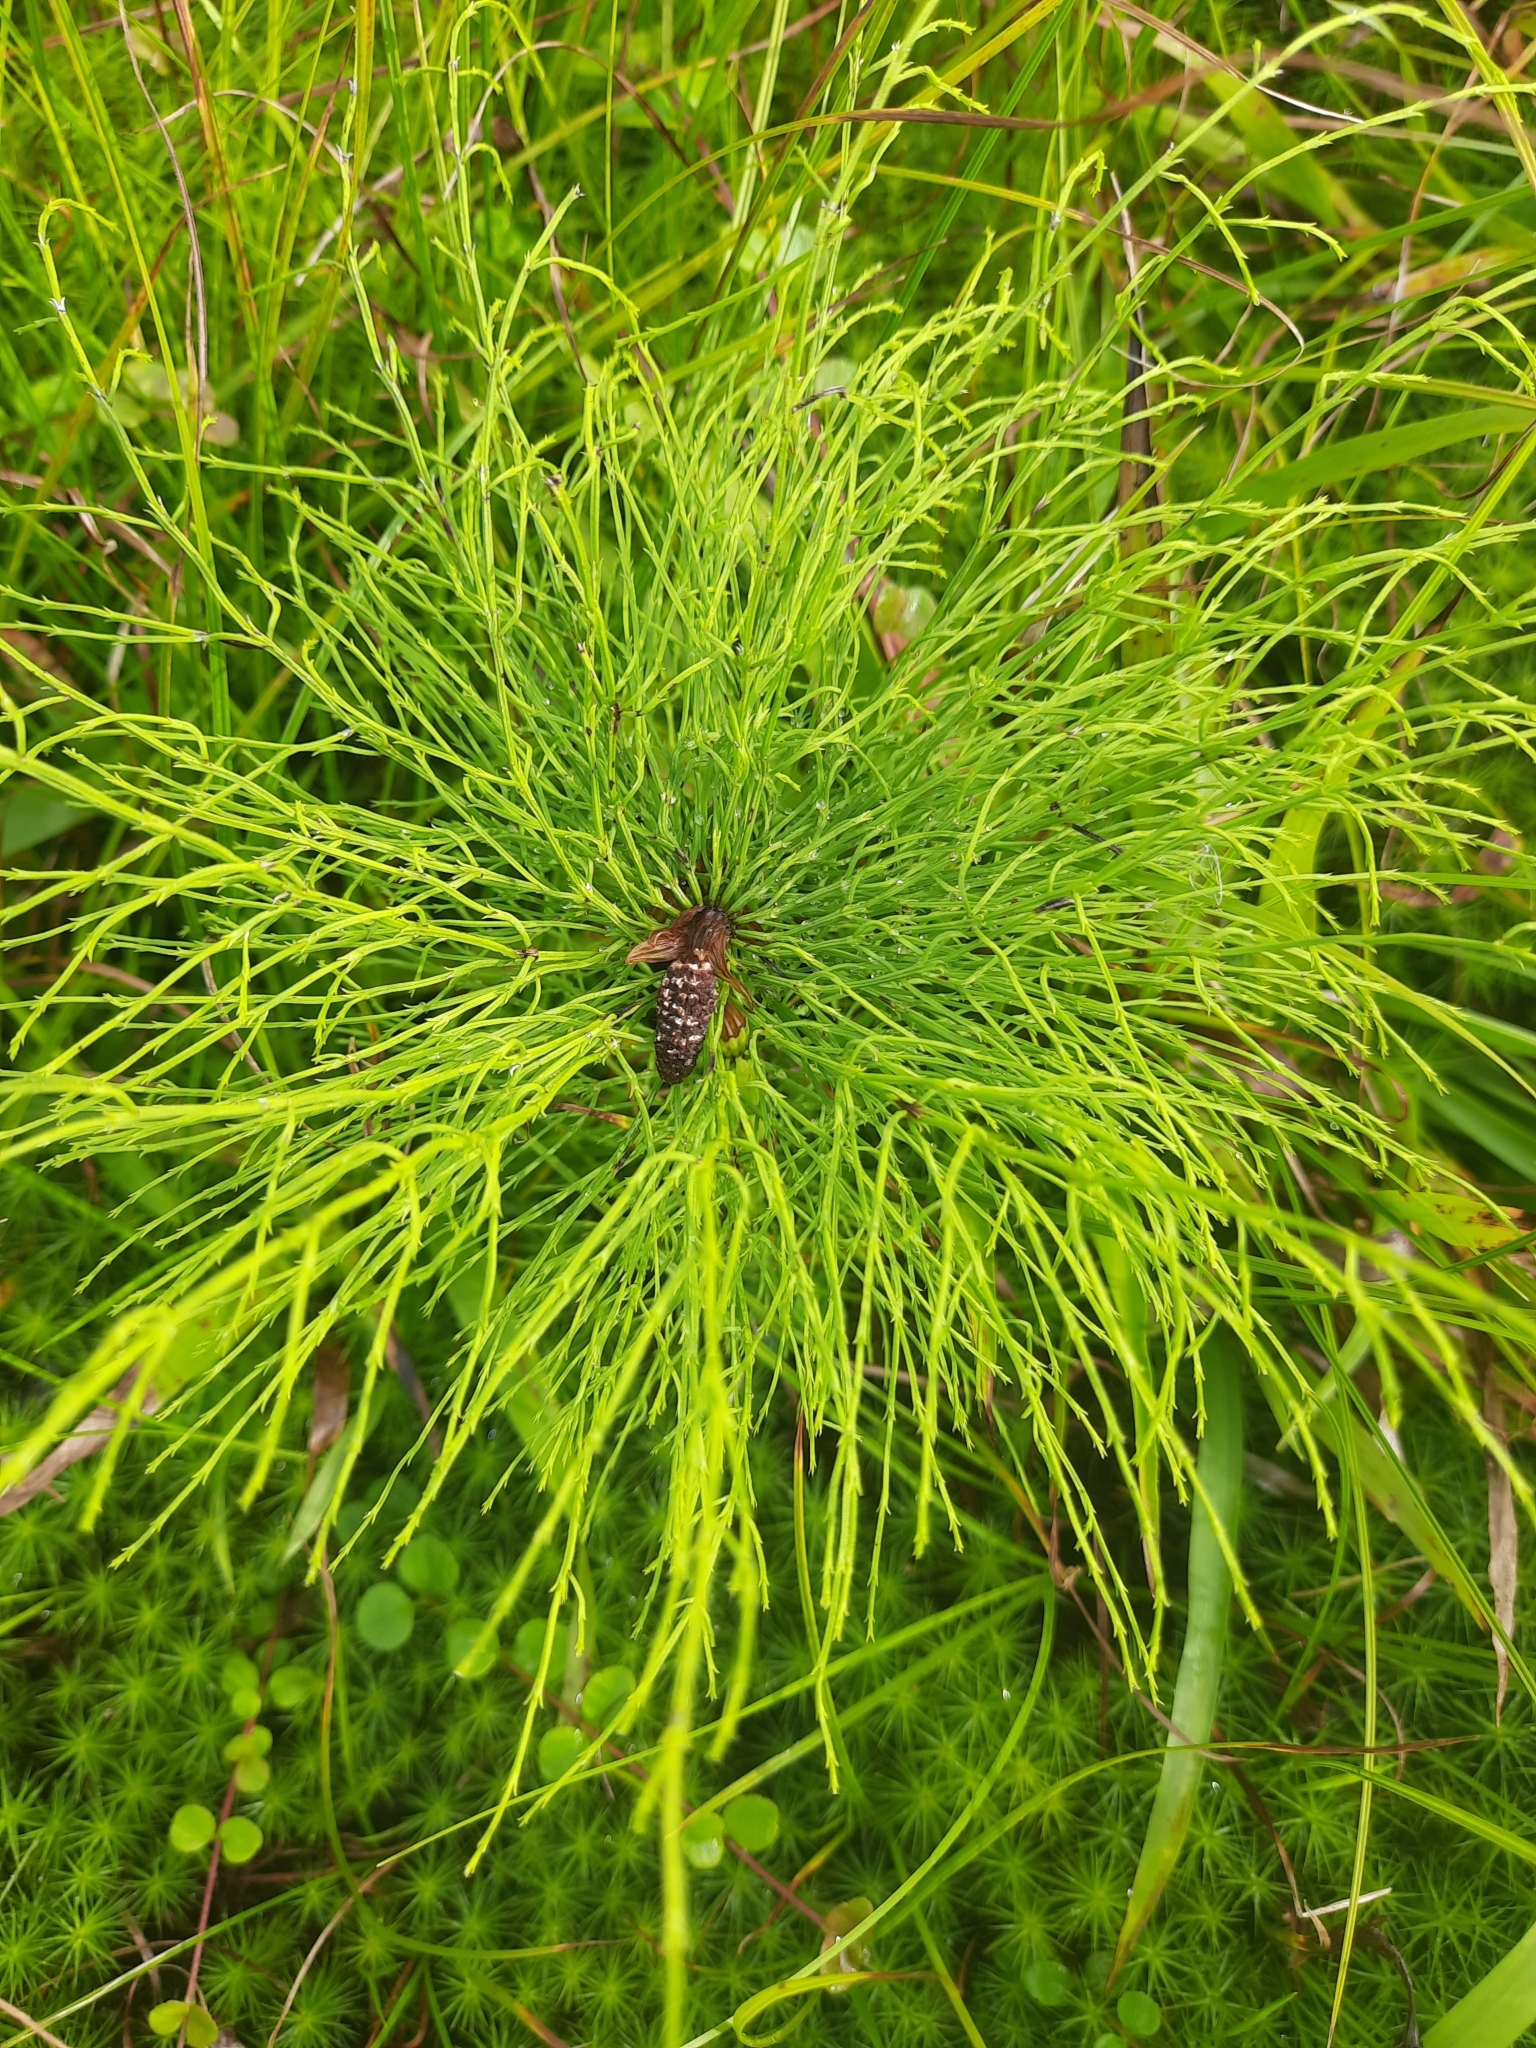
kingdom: Plantae
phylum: Tracheophyta
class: Polypodiopsida
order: Equisetales
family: Equisetaceae
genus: Equisetum
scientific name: Equisetum sylvaticum
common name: Wood horsetail
